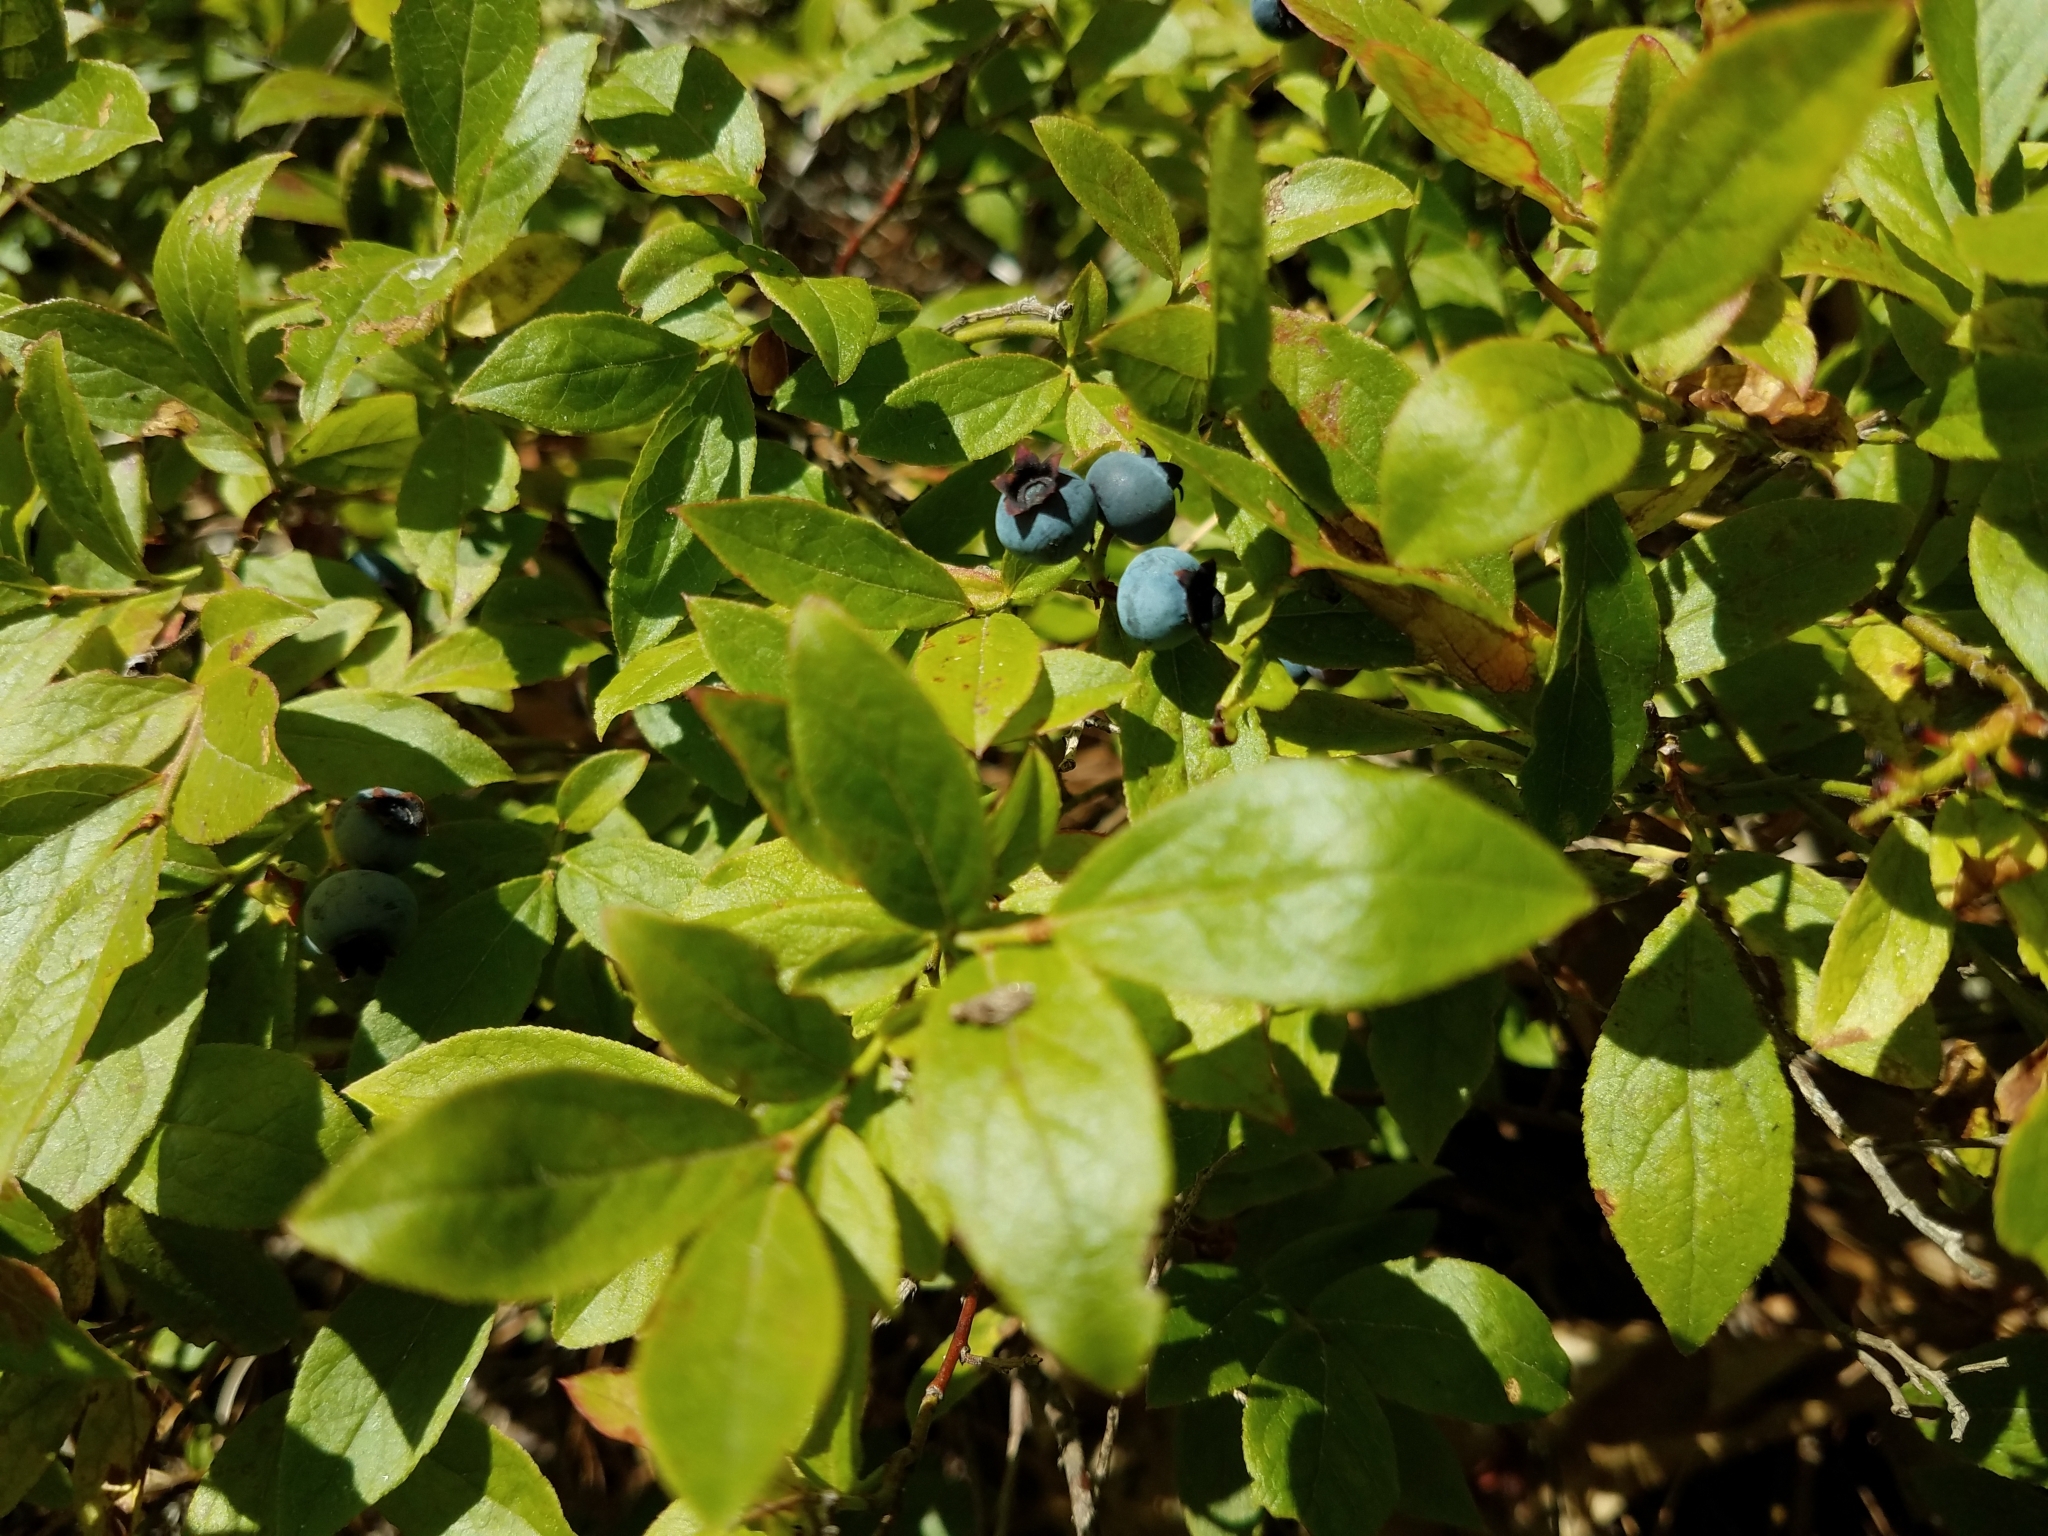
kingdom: Plantae
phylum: Tracheophyta
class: Magnoliopsida
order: Ericales
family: Ericaceae
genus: Vaccinium
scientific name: Vaccinium angustifolium
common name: Early lowbush blueberry
